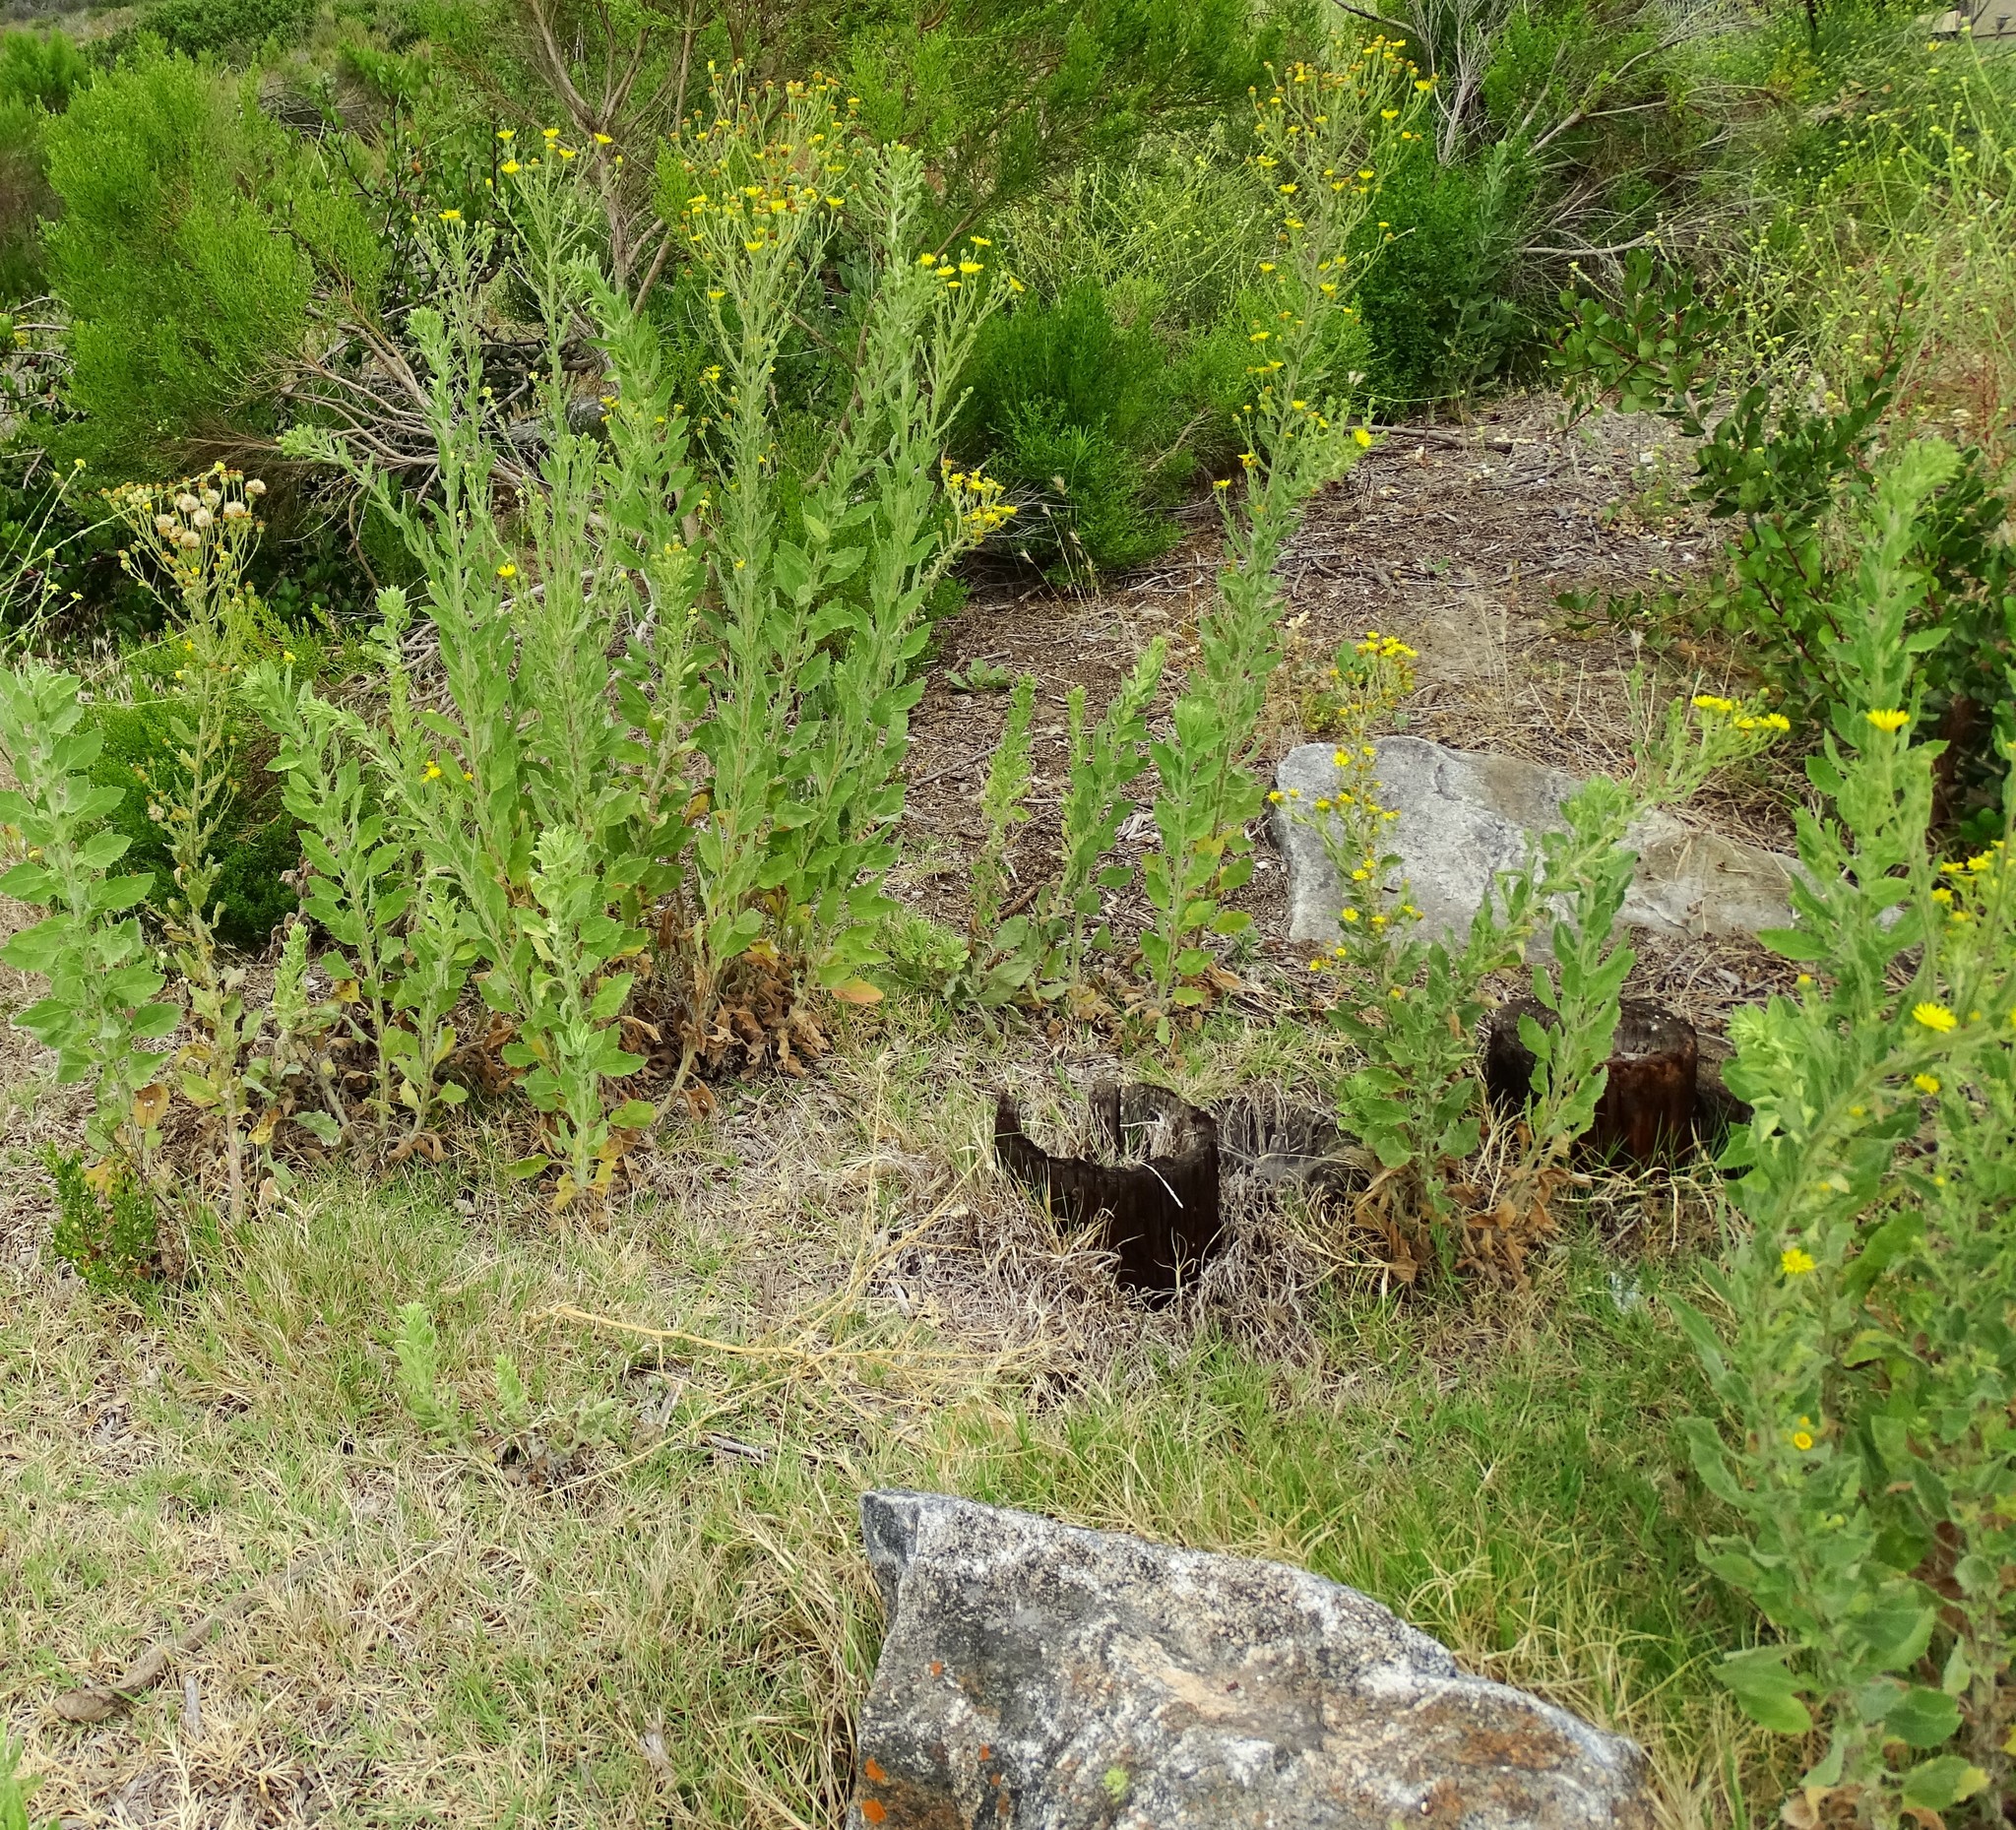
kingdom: Plantae
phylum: Tracheophyta
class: Magnoliopsida
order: Asterales
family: Asteraceae
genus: Heterotheca
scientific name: Heterotheca grandiflora
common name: Telegraphweed
